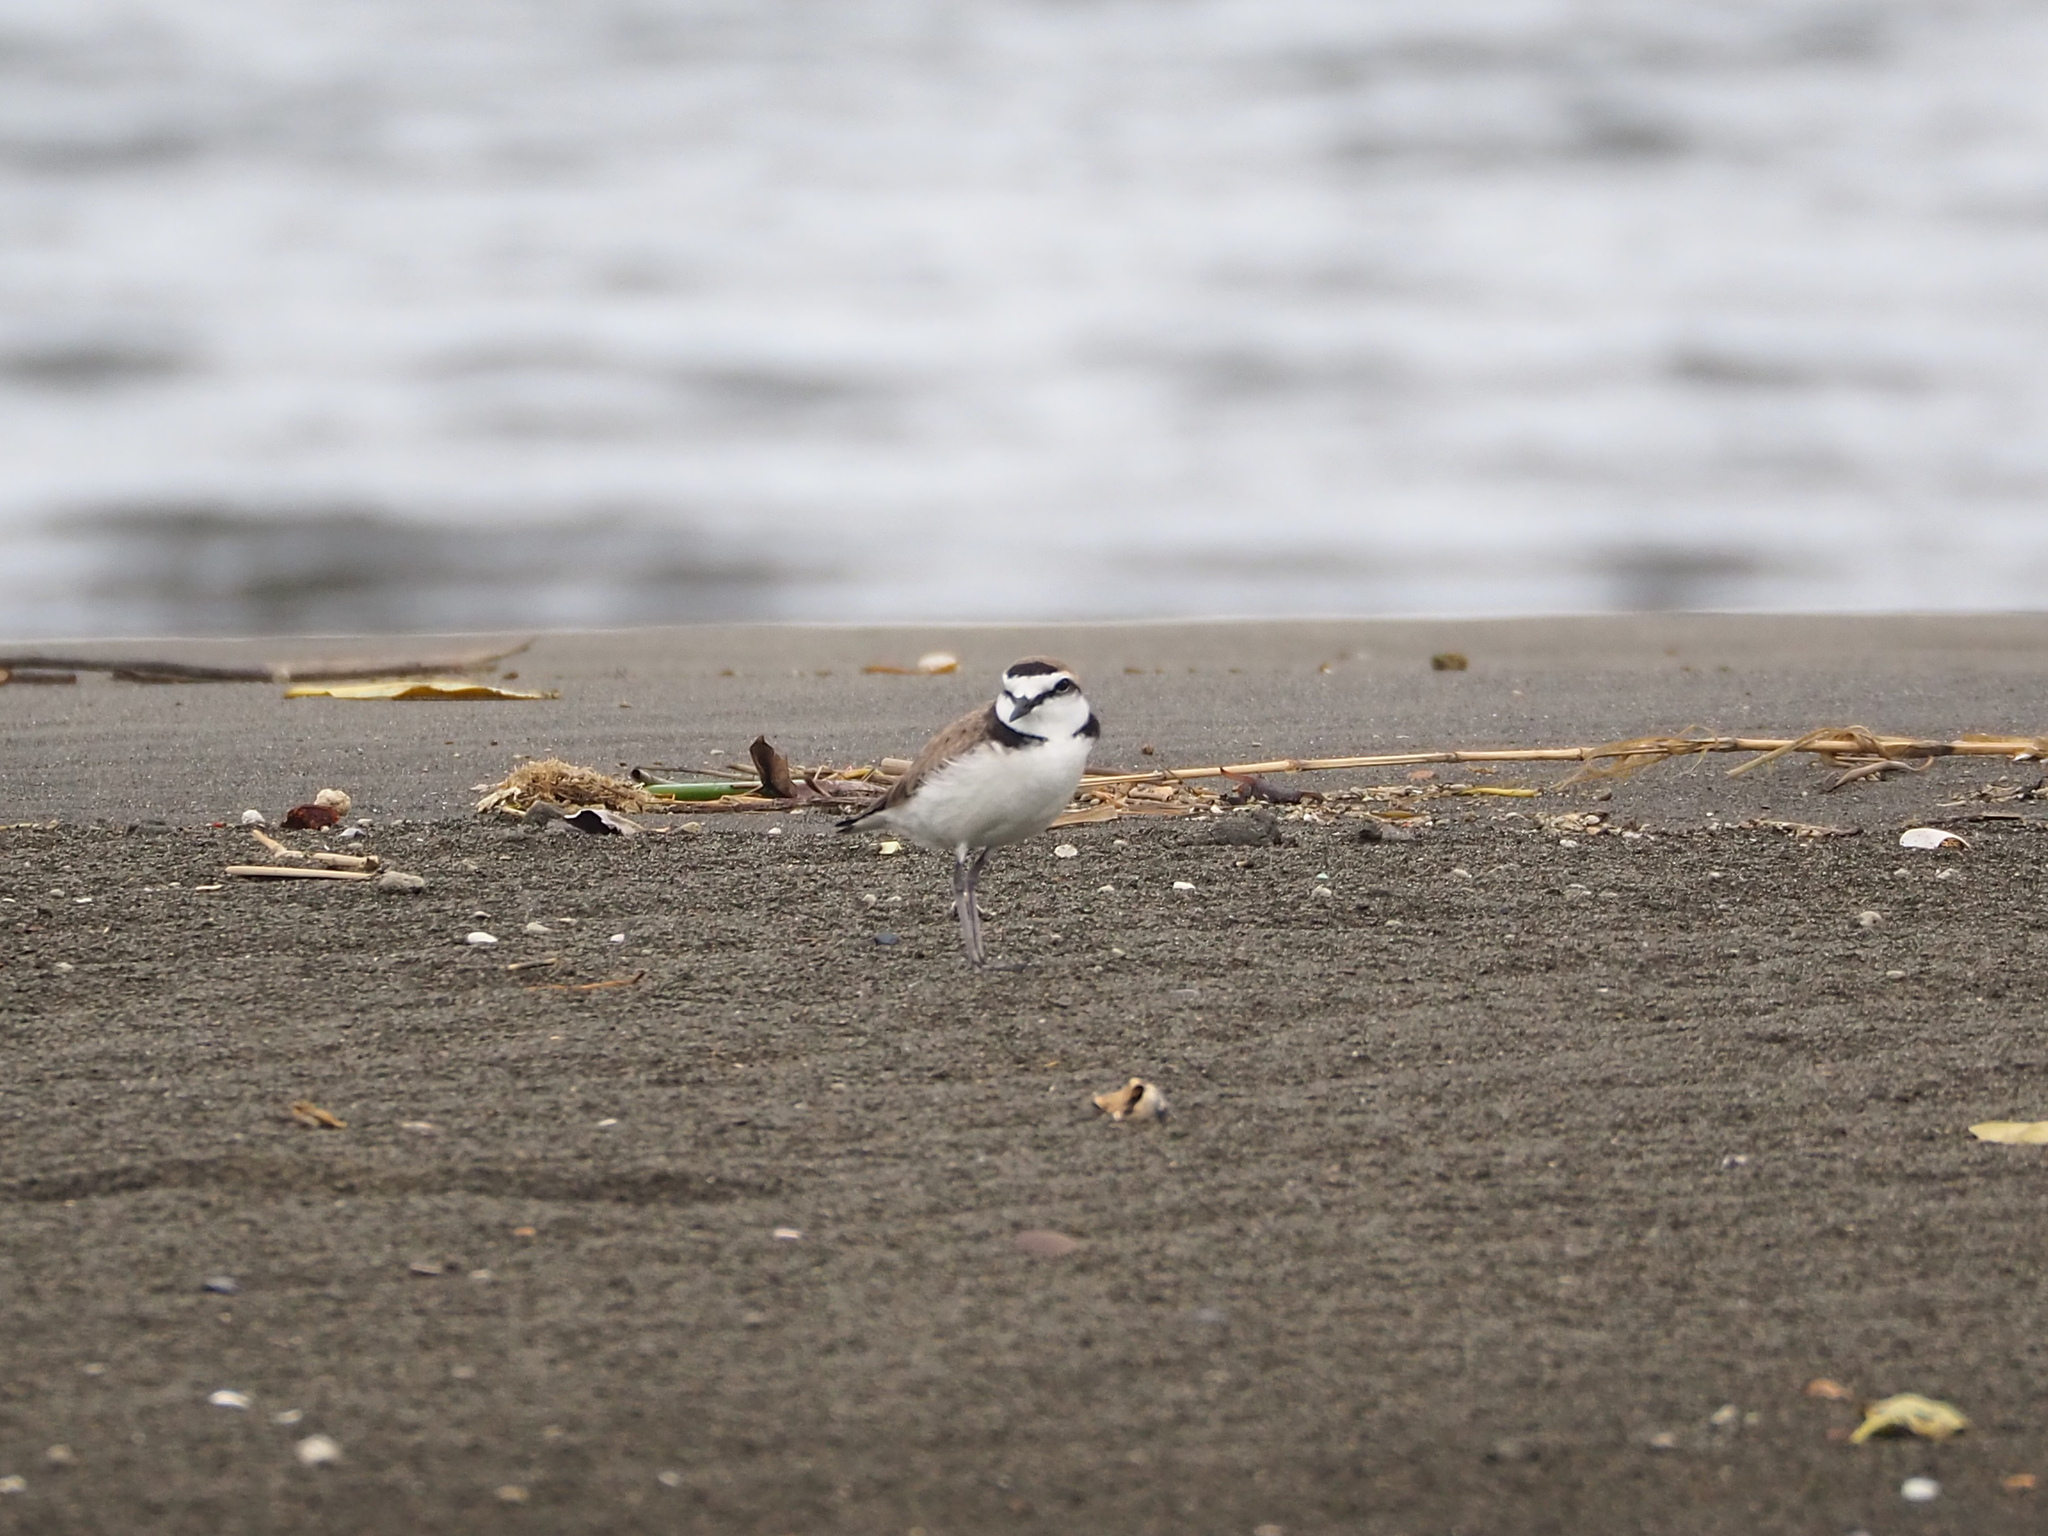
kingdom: Animalia
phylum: Chordata
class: Aves
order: Charadriiformes
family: Charadriidae
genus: Charadrius
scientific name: Charadrius alexandrinus
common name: Kentish plover
